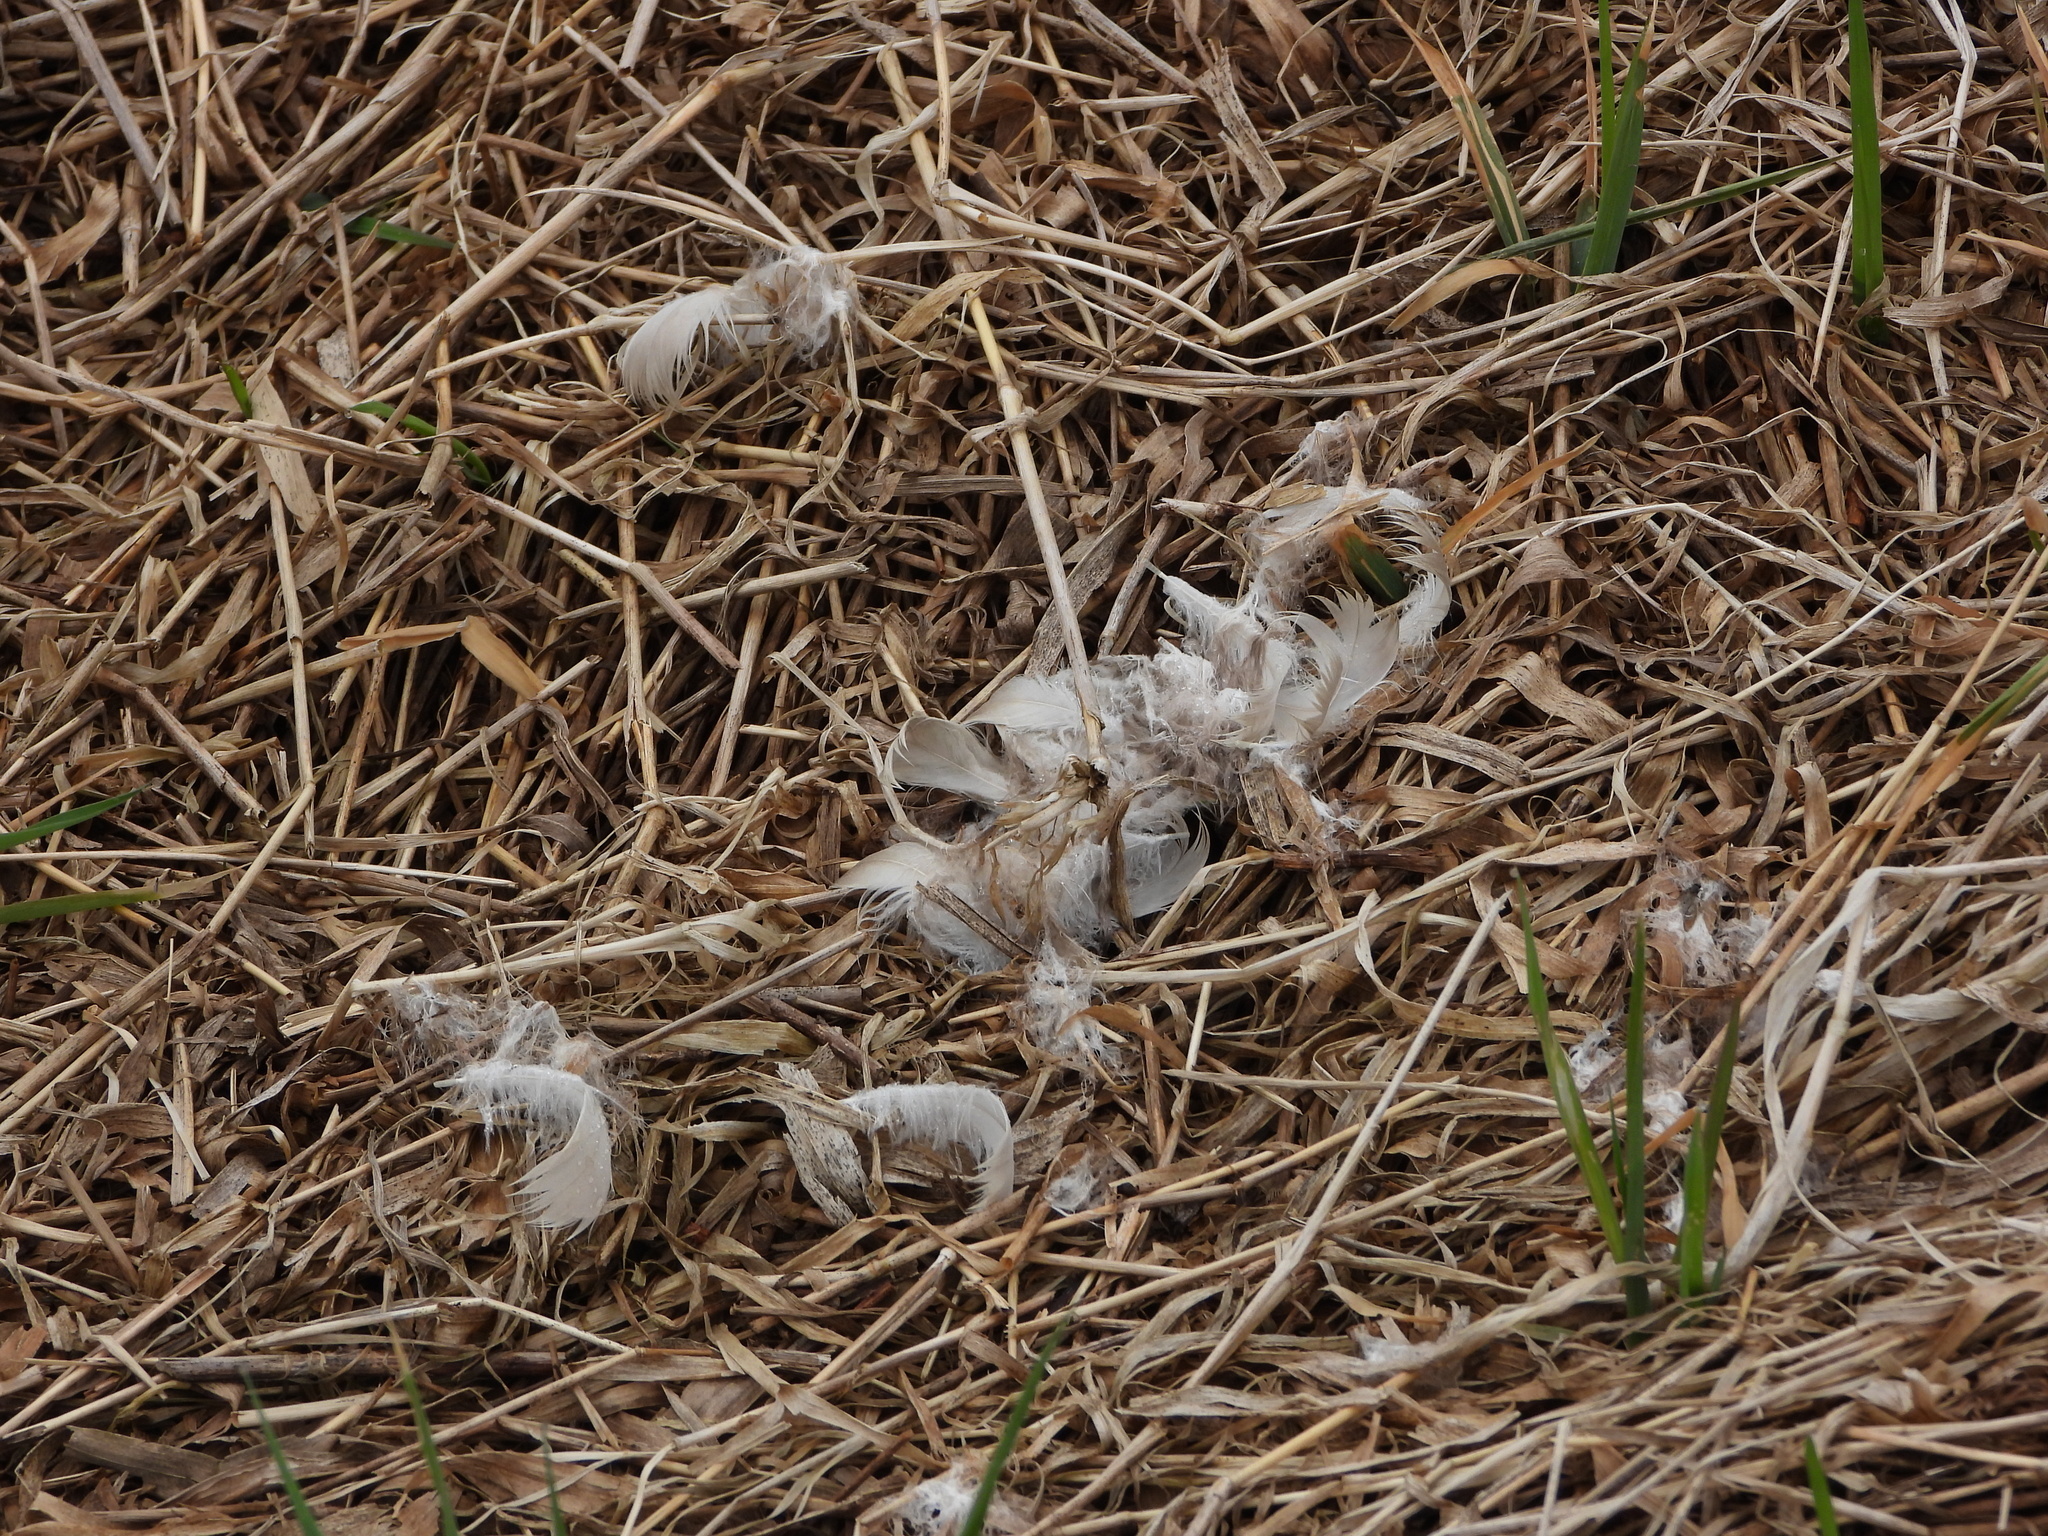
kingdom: Animalia
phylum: Chordata
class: Aves
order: Anseriformes
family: Anatidae
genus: Branta
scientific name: Branta canadensis
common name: Canada goose
